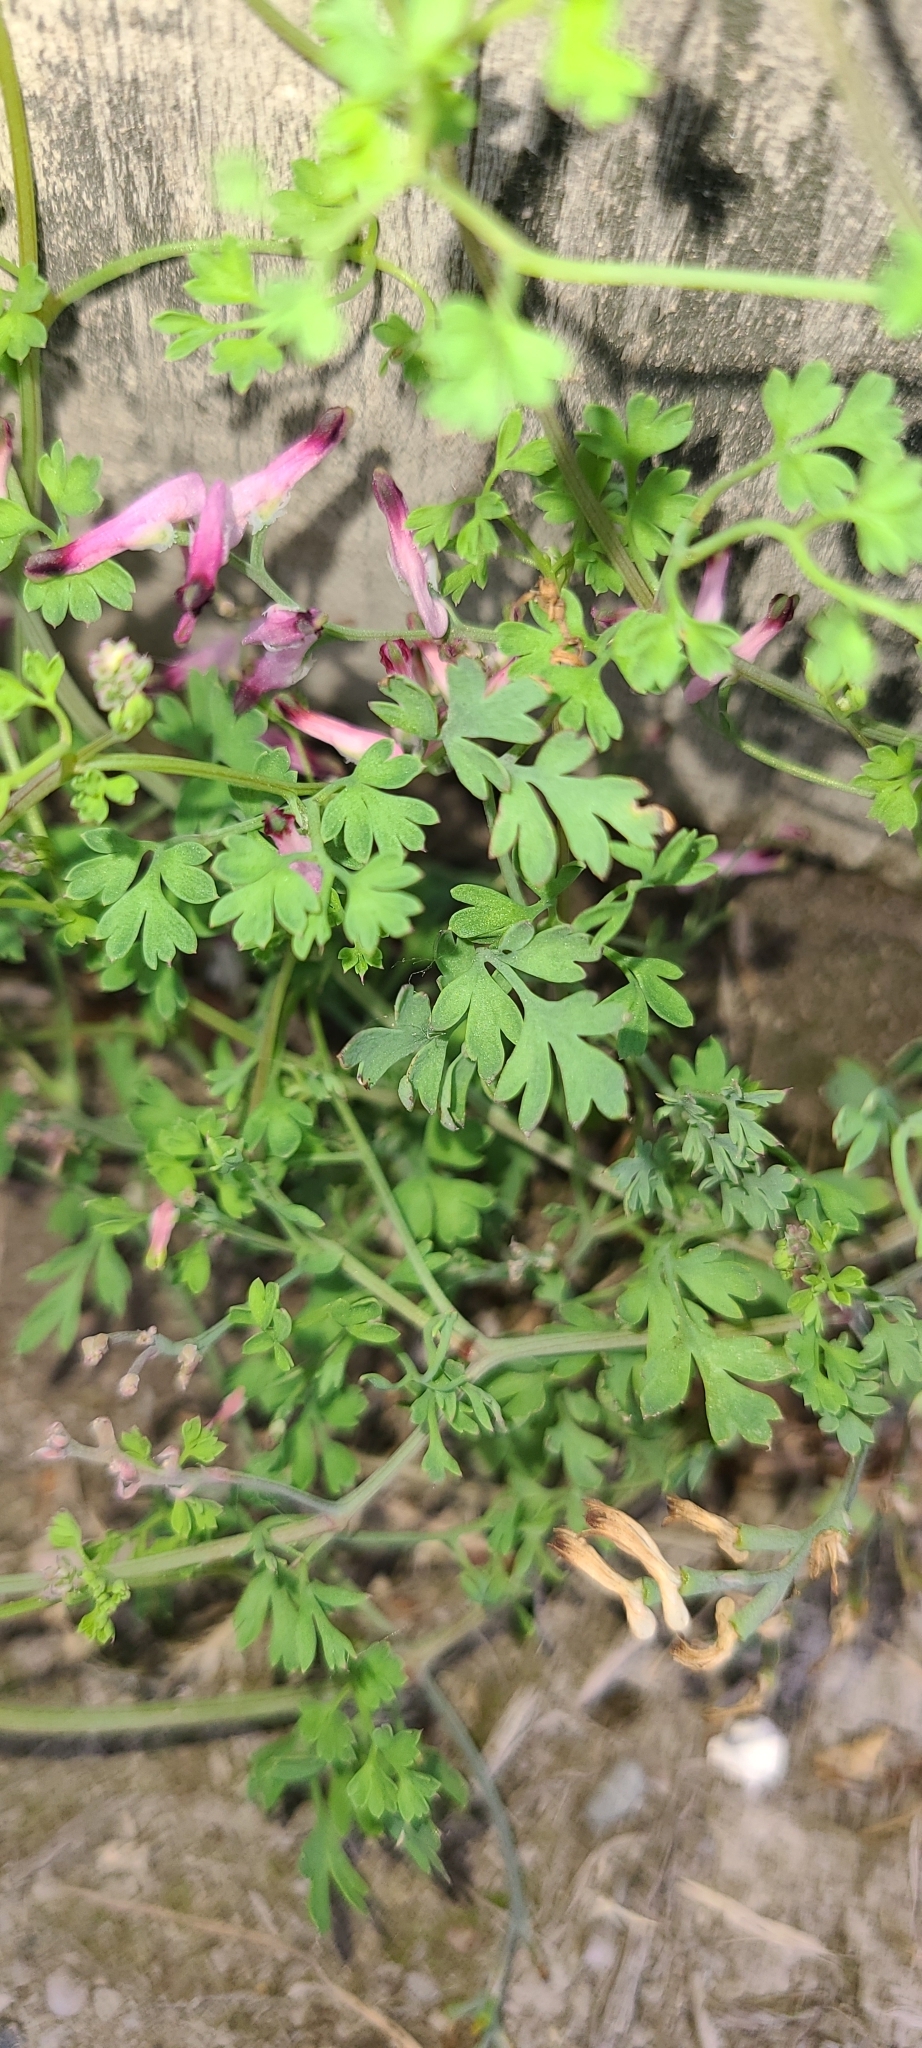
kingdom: Plantae
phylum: Tracheophyta
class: Magnoliopsida
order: Ranunculales
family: Papaveraceae
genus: Fumaria
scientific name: Fumaria muralis
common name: Common ramping-fumitory
